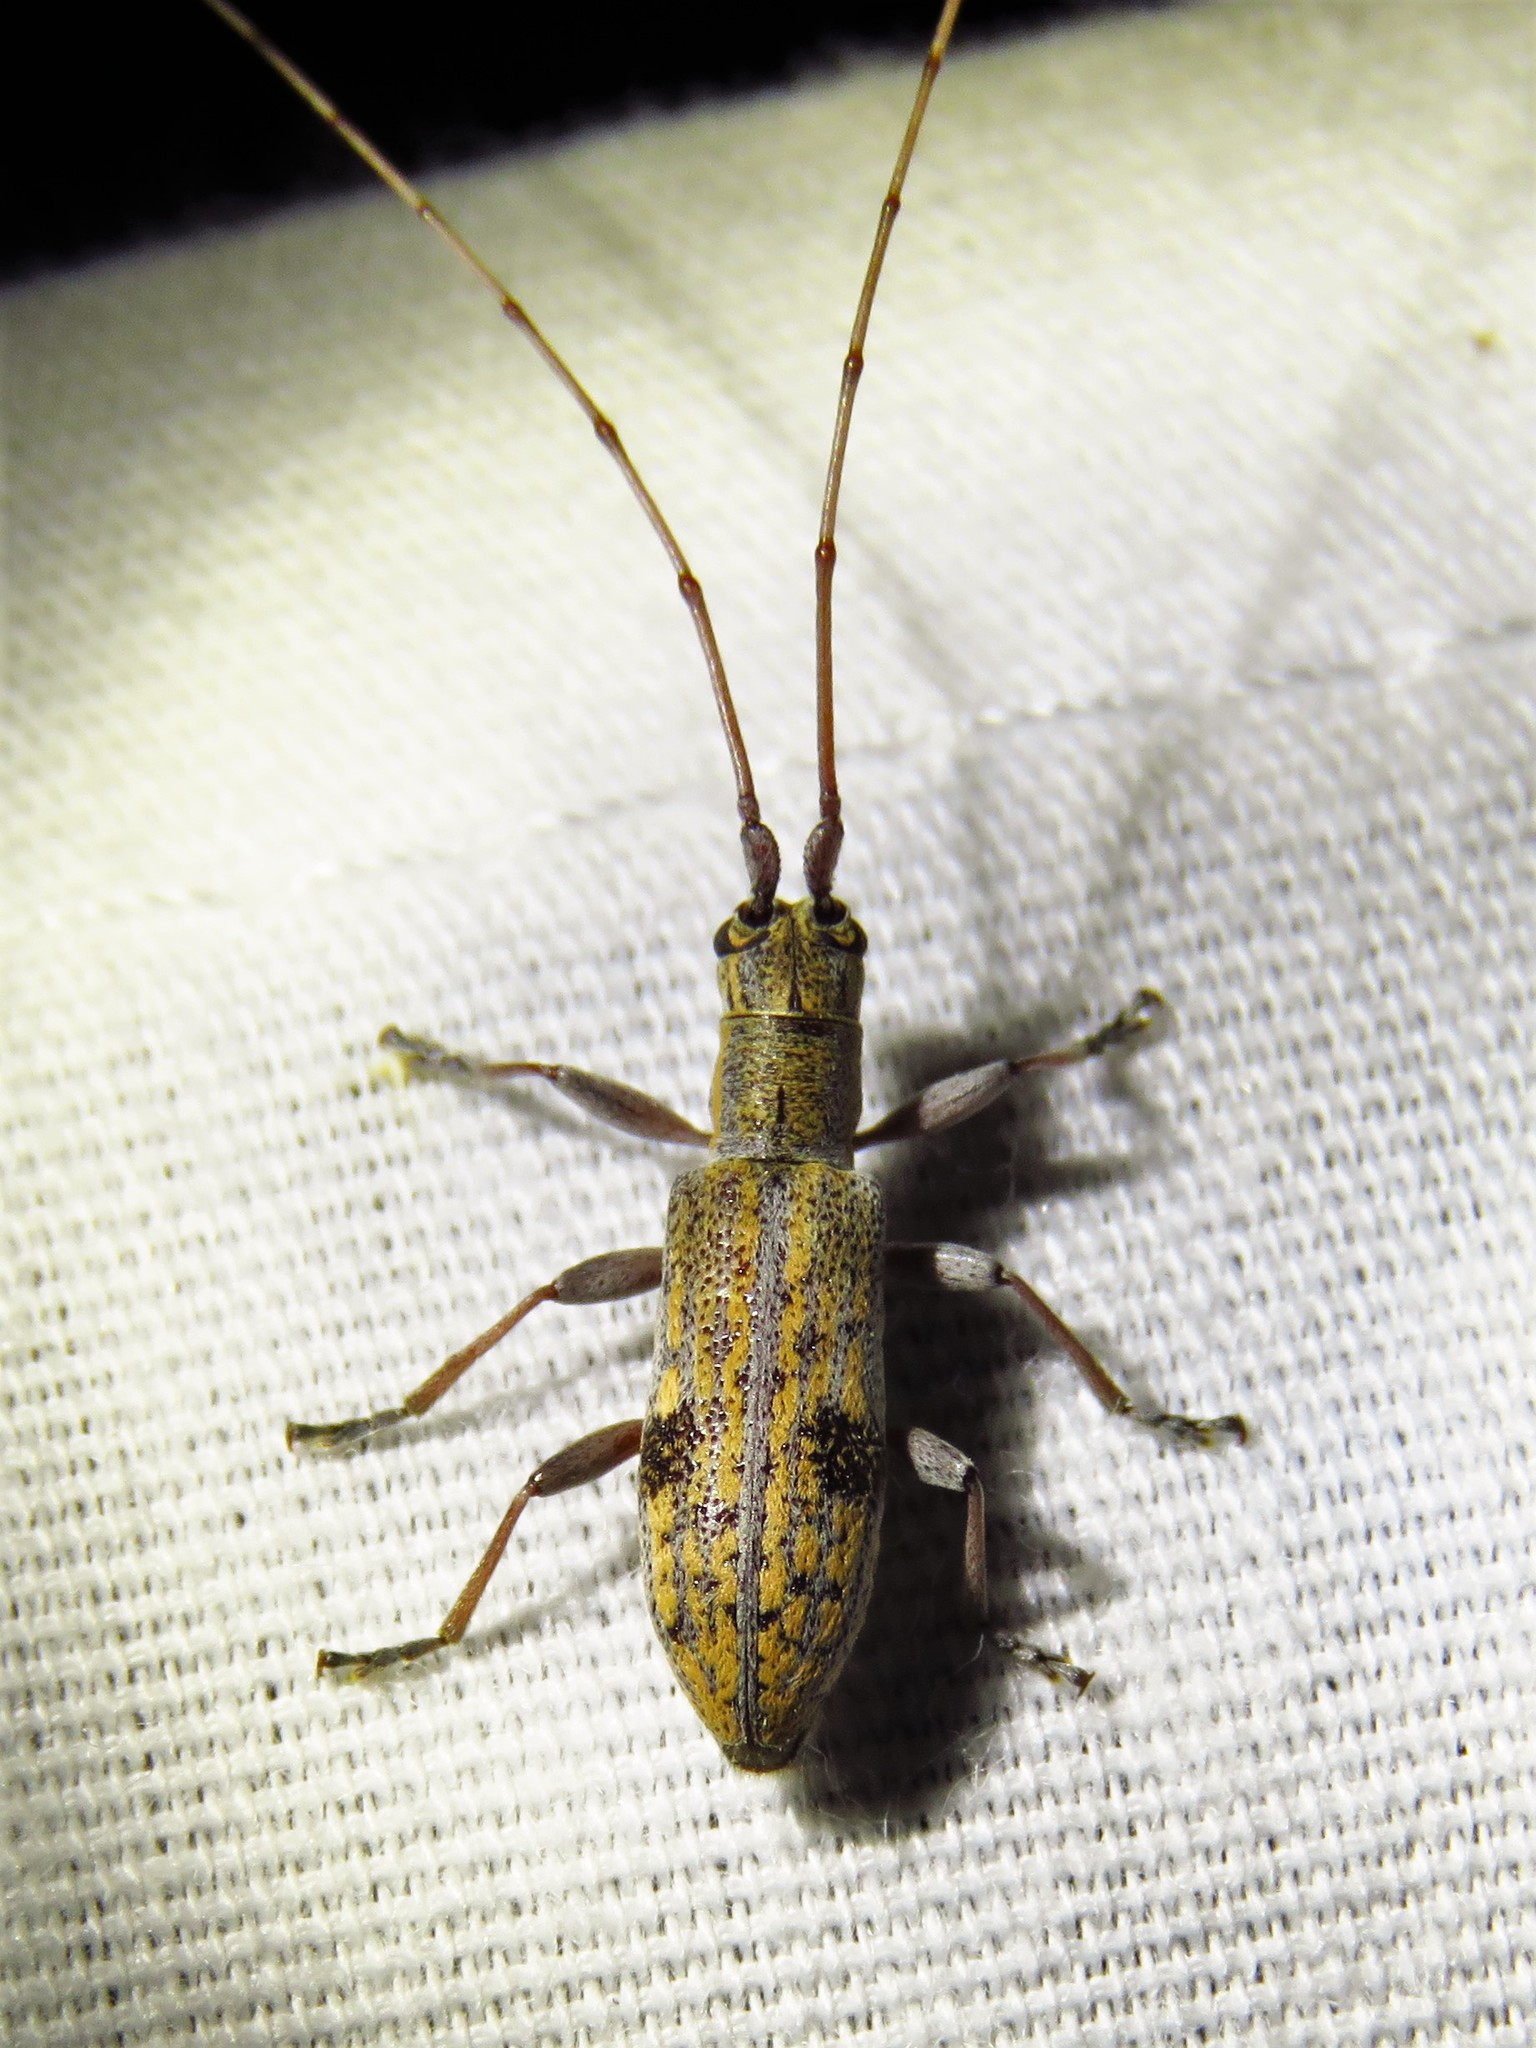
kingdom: Animalia
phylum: Arthropoda
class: Insecta
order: Coleoptera
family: Cerambycidae
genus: Dorcaschema
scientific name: Dorcaschema alternatum
